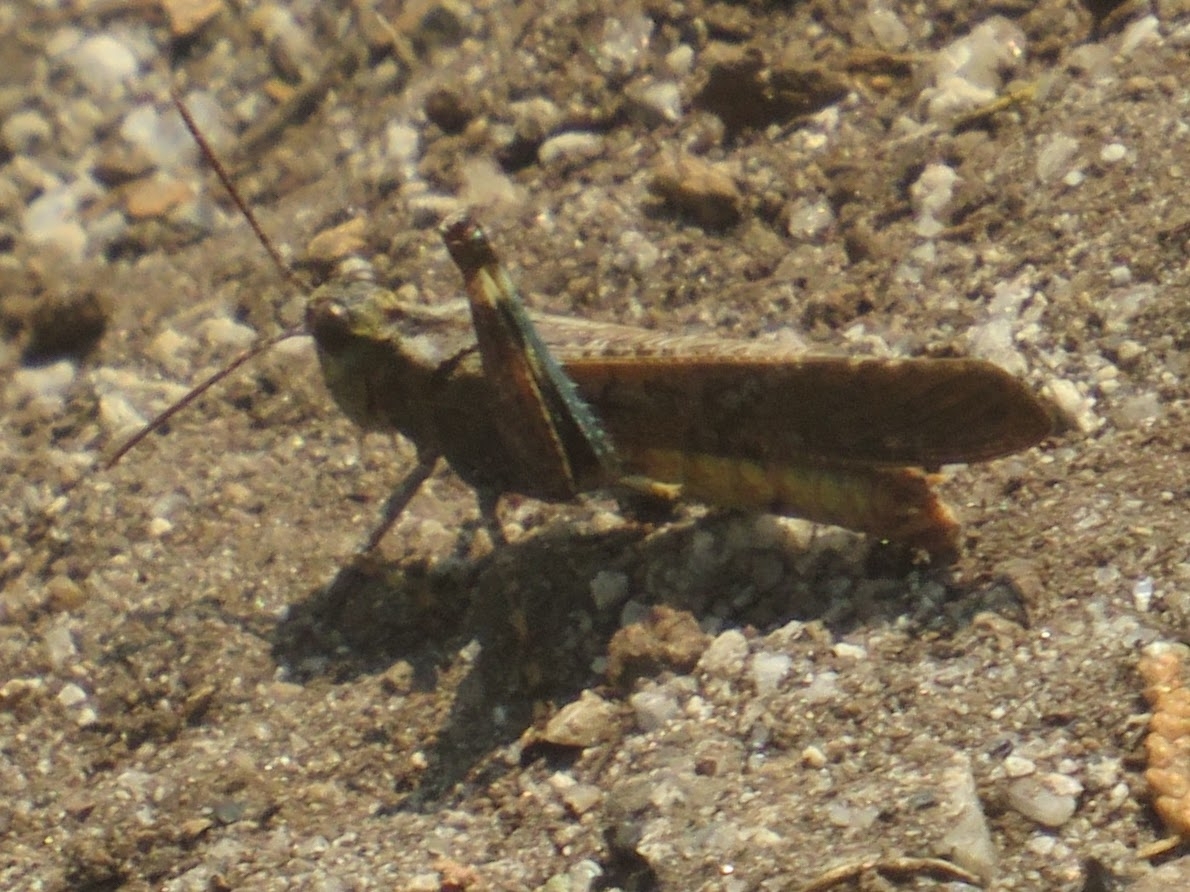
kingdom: Animalia
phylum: Arthropoda
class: Insecta
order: Orthoptera
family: Acrididae
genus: Trimerotropis
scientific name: Trimerotropis verruculata
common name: Crackling forest grasshopper
